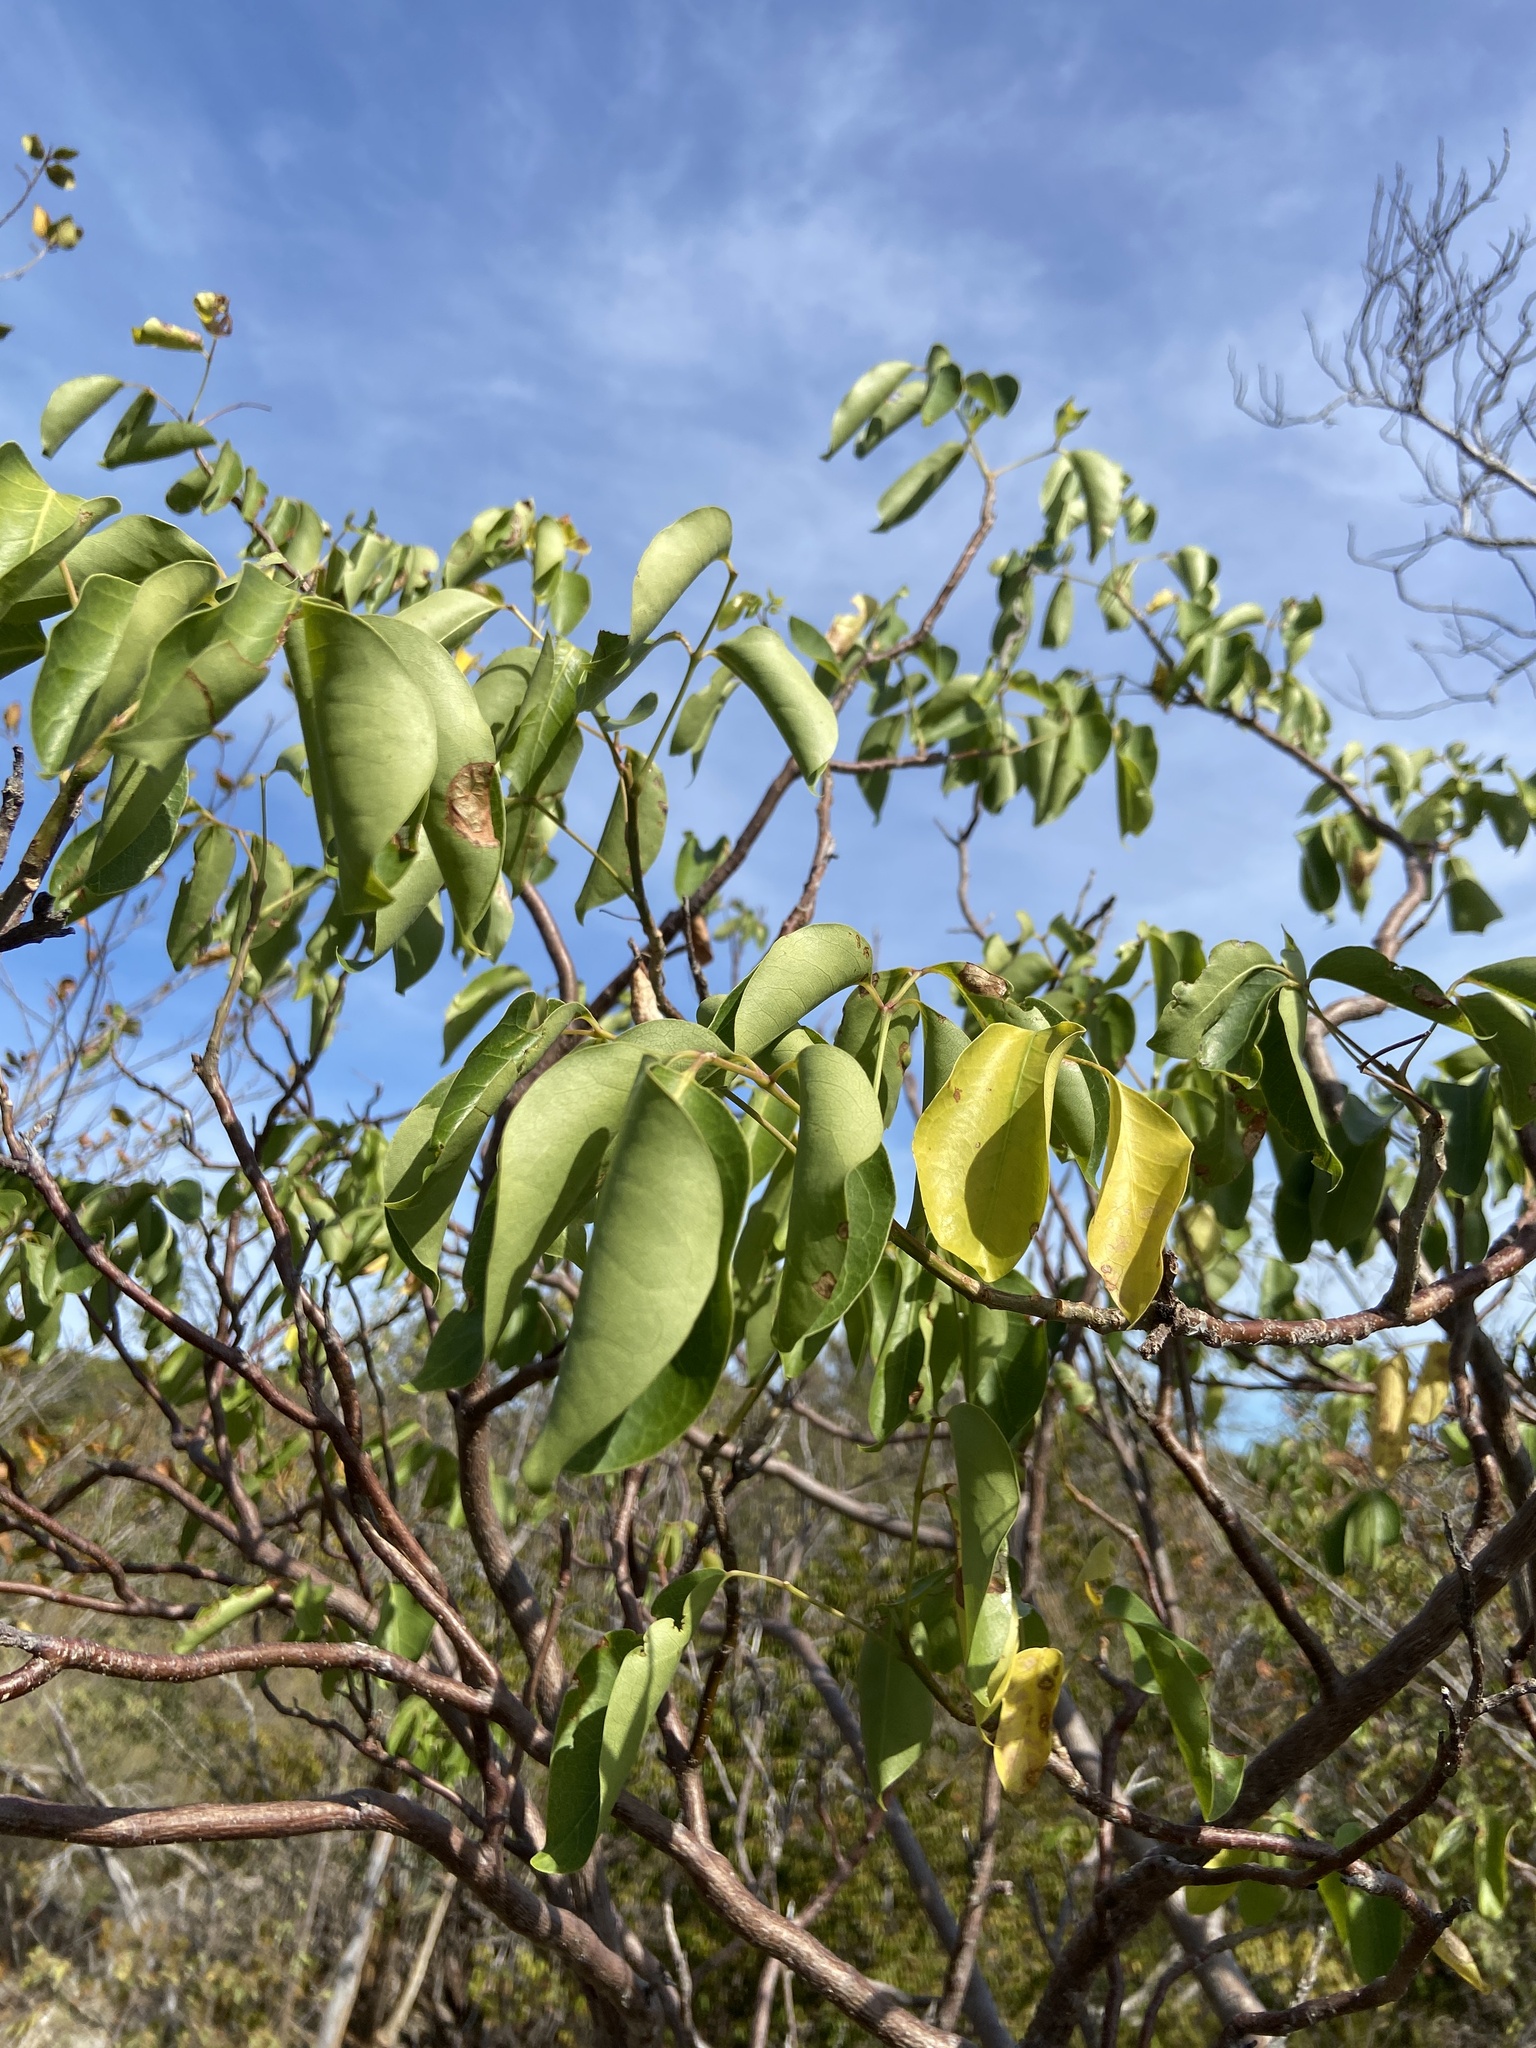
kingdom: Plantae
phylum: Tracheophyta
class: Magnoliopsida
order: Sapindales
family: Burseraceae
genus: Bursera
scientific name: Bursera simaruba
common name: Turpentine tree
